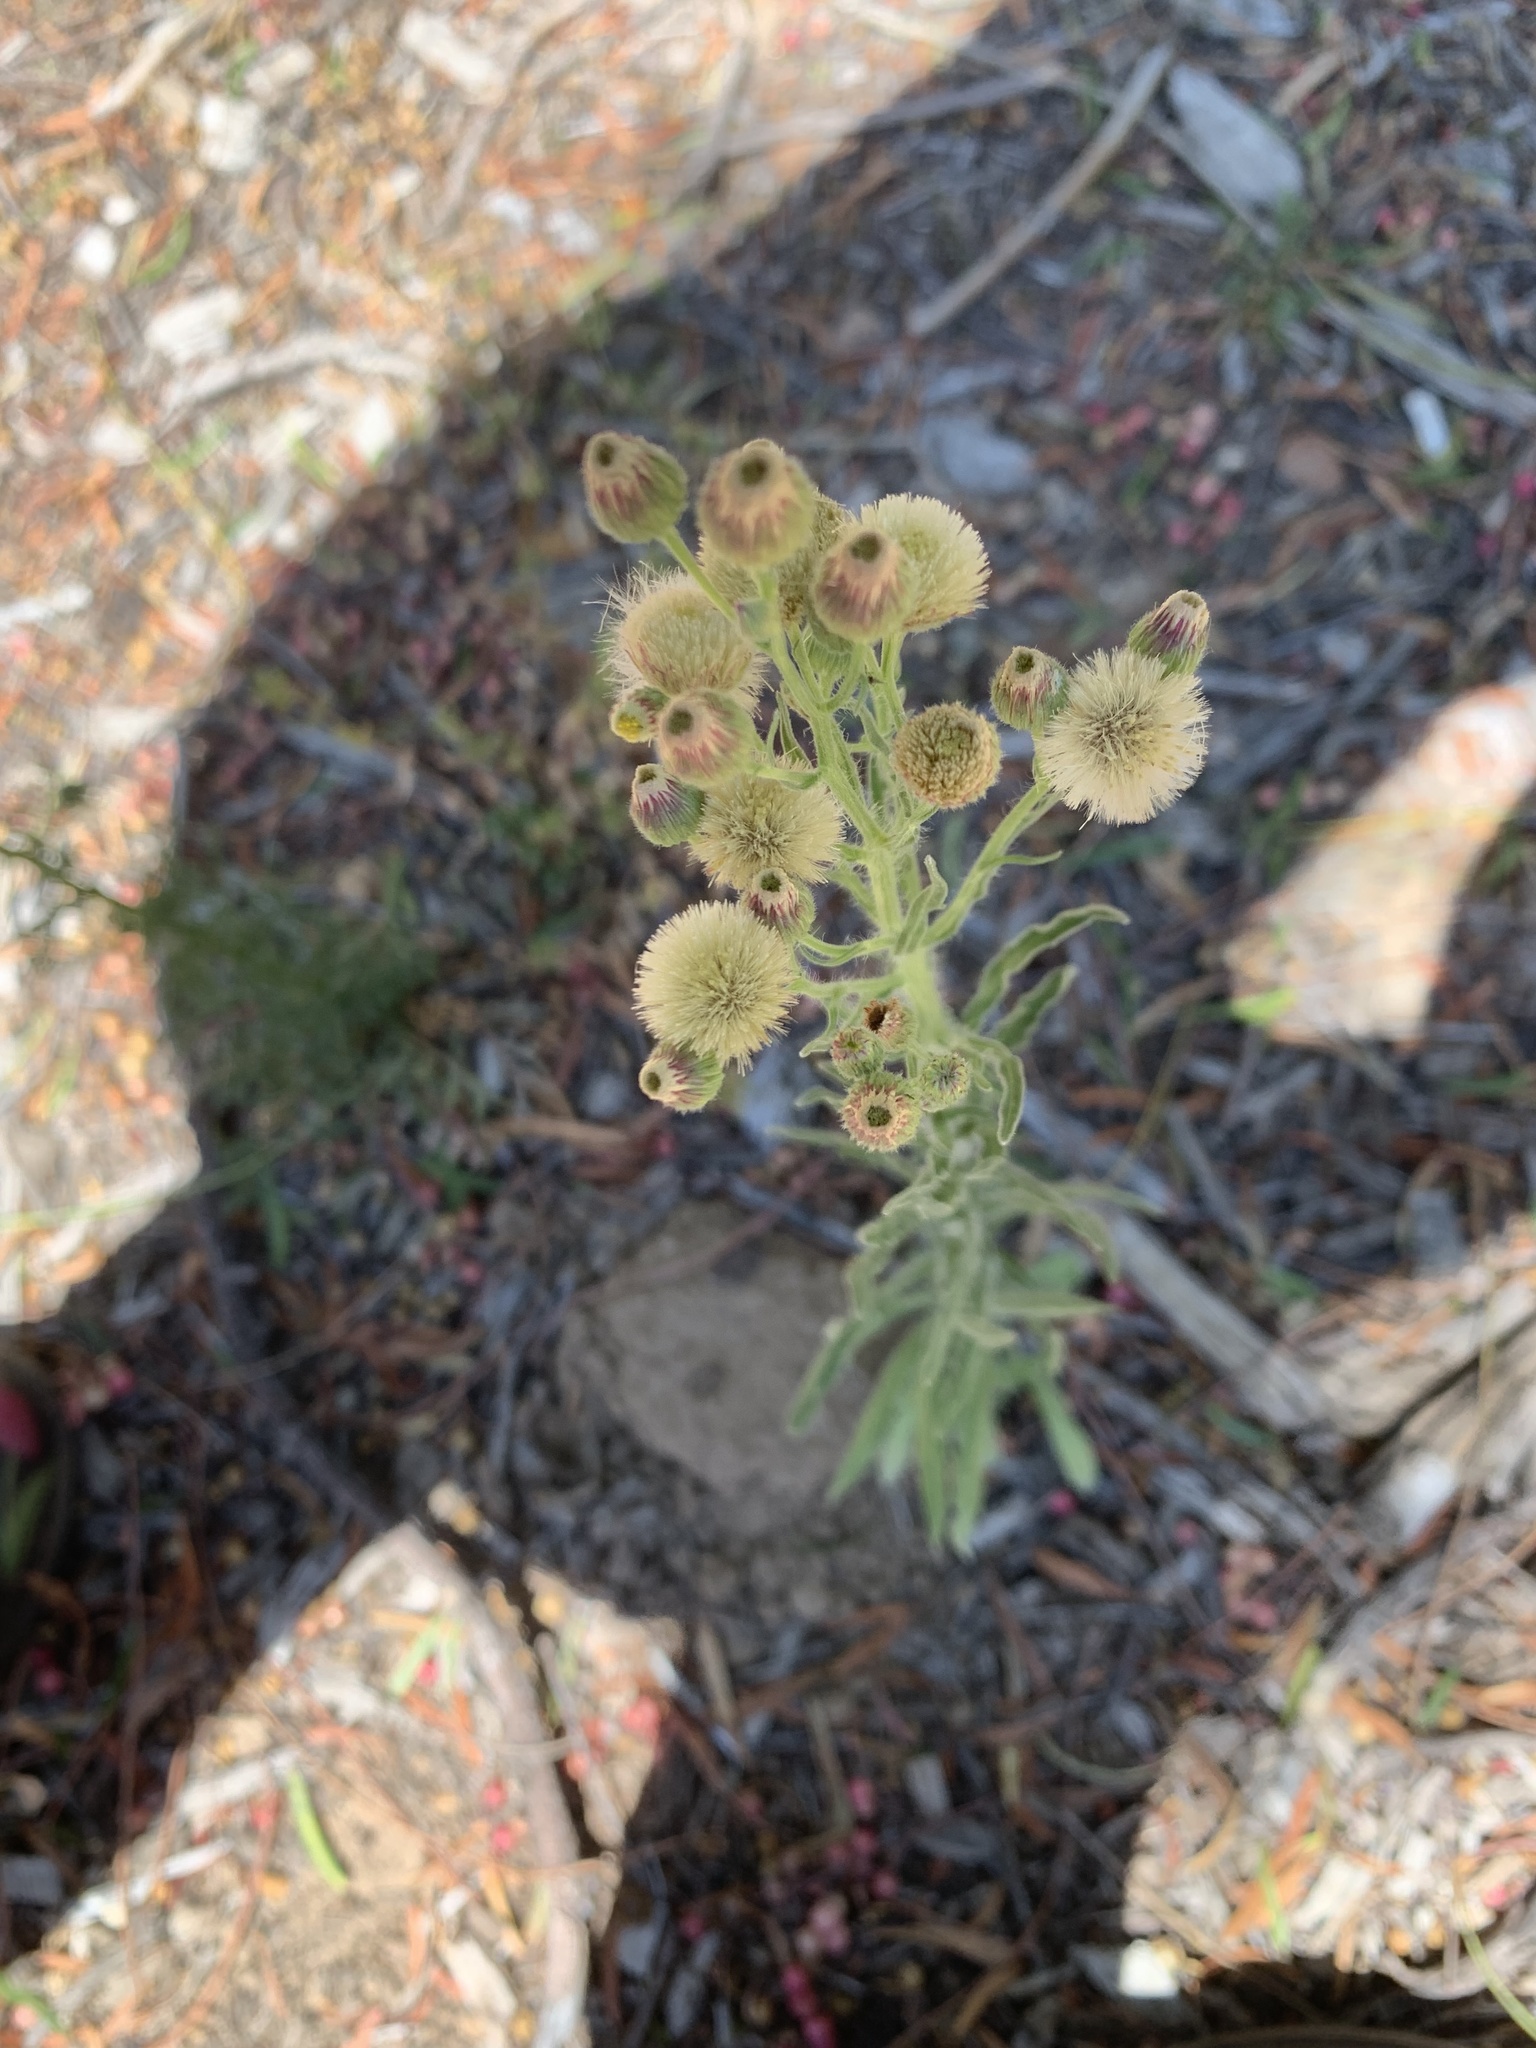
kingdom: Plantae
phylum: Tracheophyta
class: Magnoliopsida
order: Asterales
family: Asteraceae
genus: Erigeron
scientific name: Erigeron bonariensis
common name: Argentine fleabane
